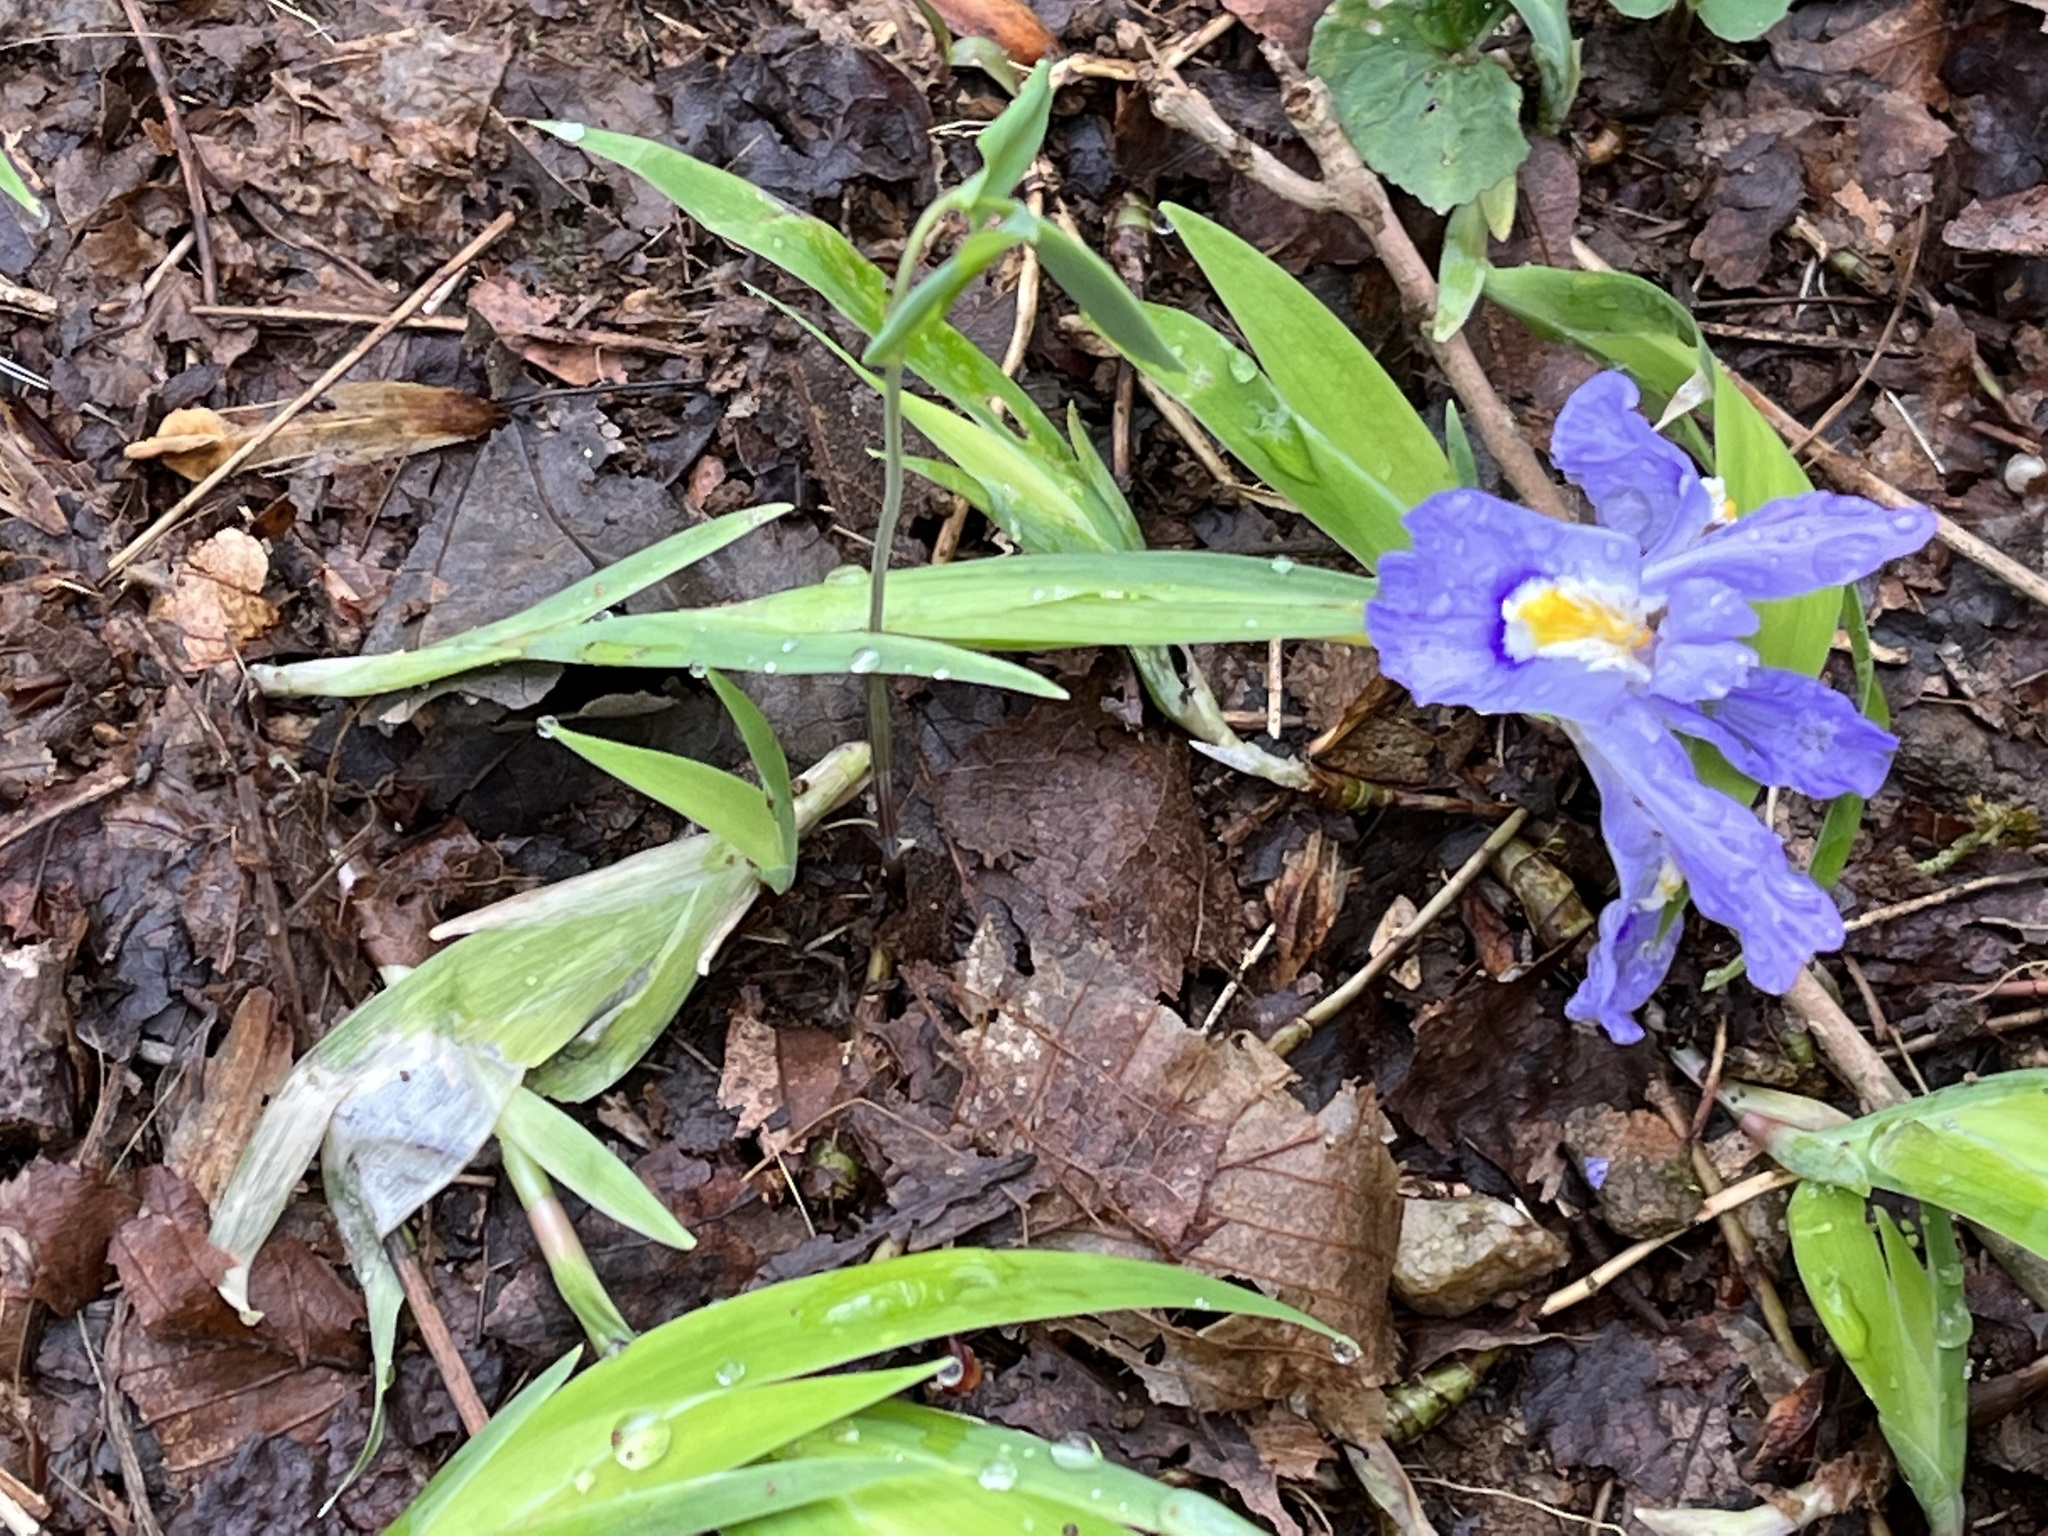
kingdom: Plantae
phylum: Tracheophyta
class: Liliopsida
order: Asparagales
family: Iridaceae
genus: Iris
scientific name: Iris cristata
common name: Crested iris
